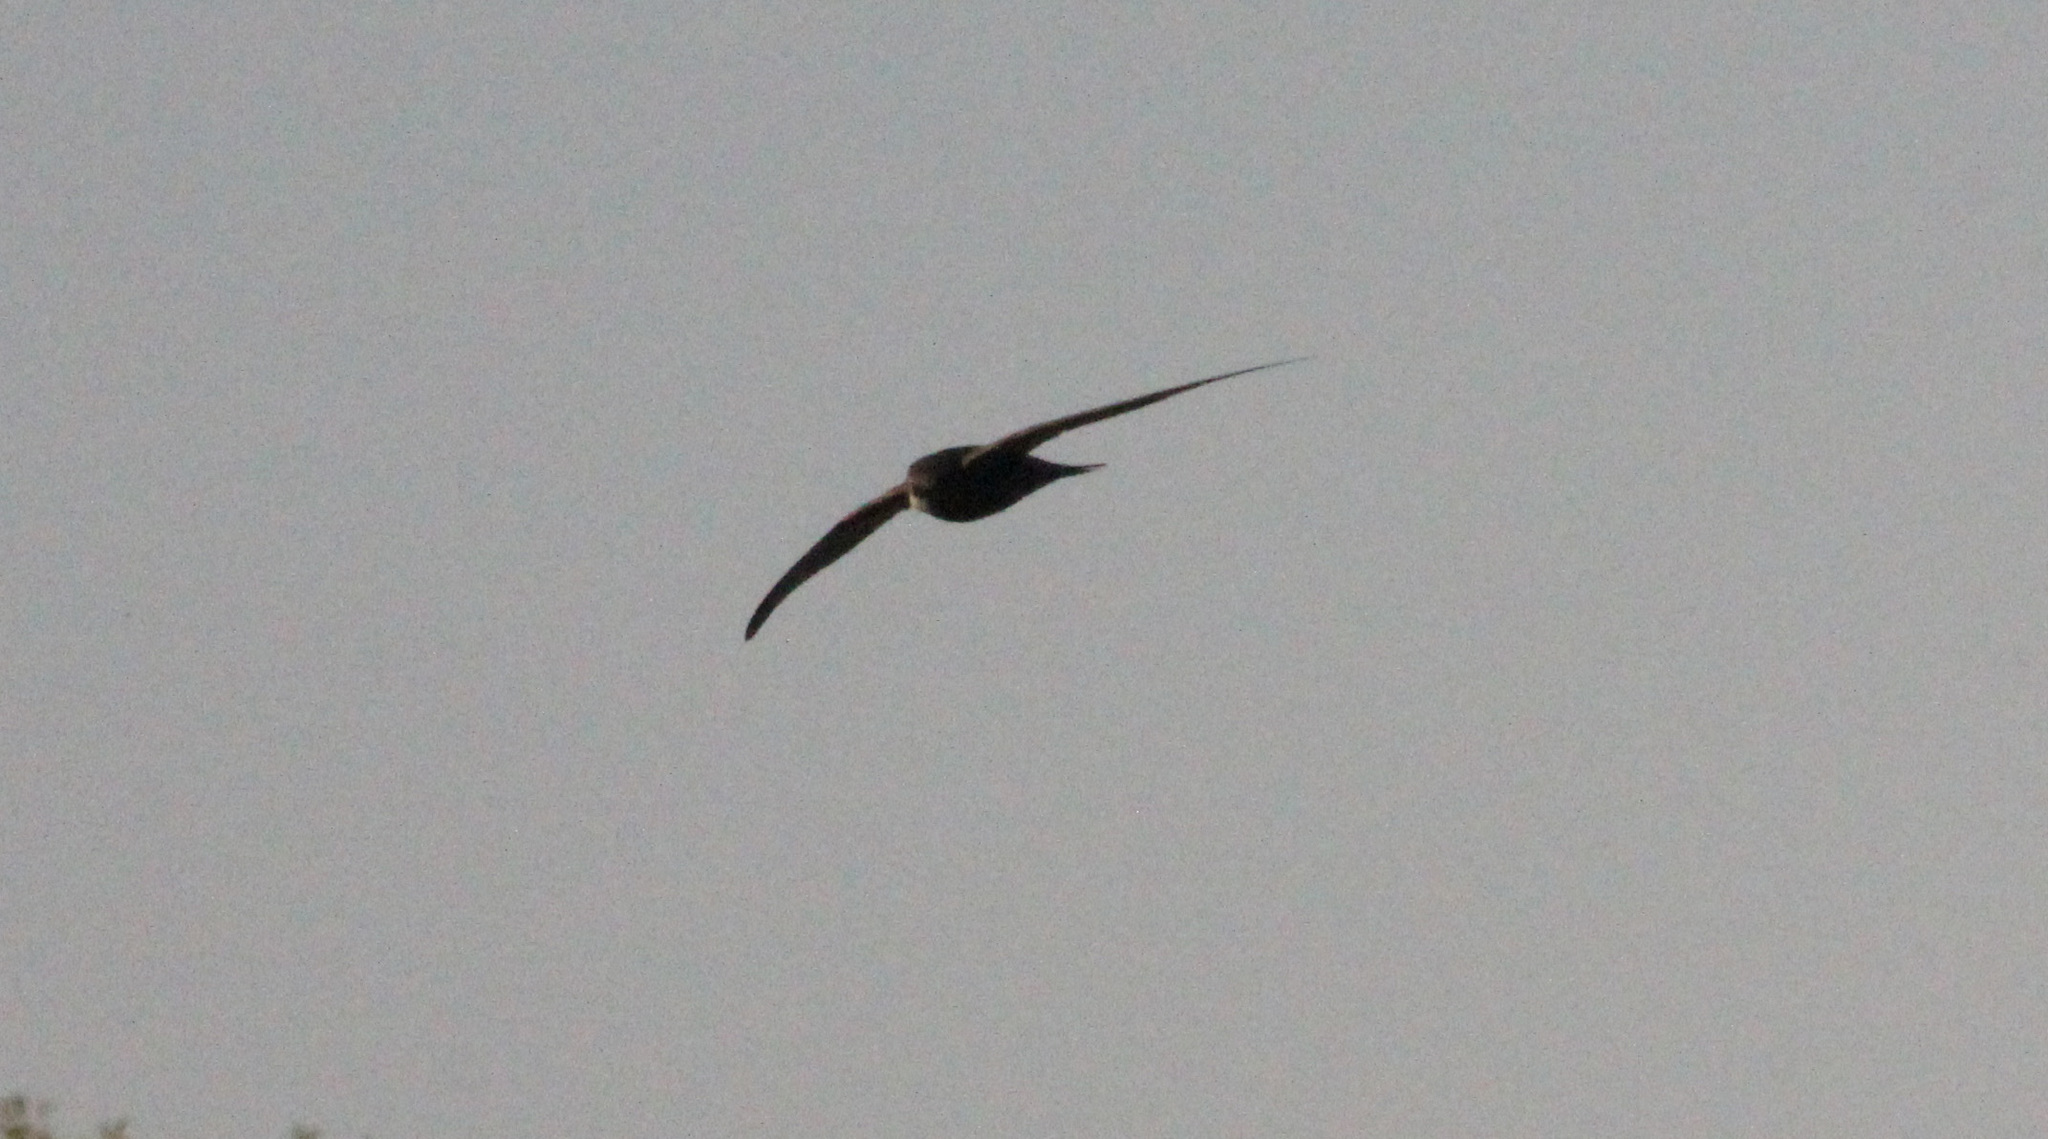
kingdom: Animalia
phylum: Chordata
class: Aves
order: Apodiformes
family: Apodidae
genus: Apus
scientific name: Apus apus
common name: Common swift
